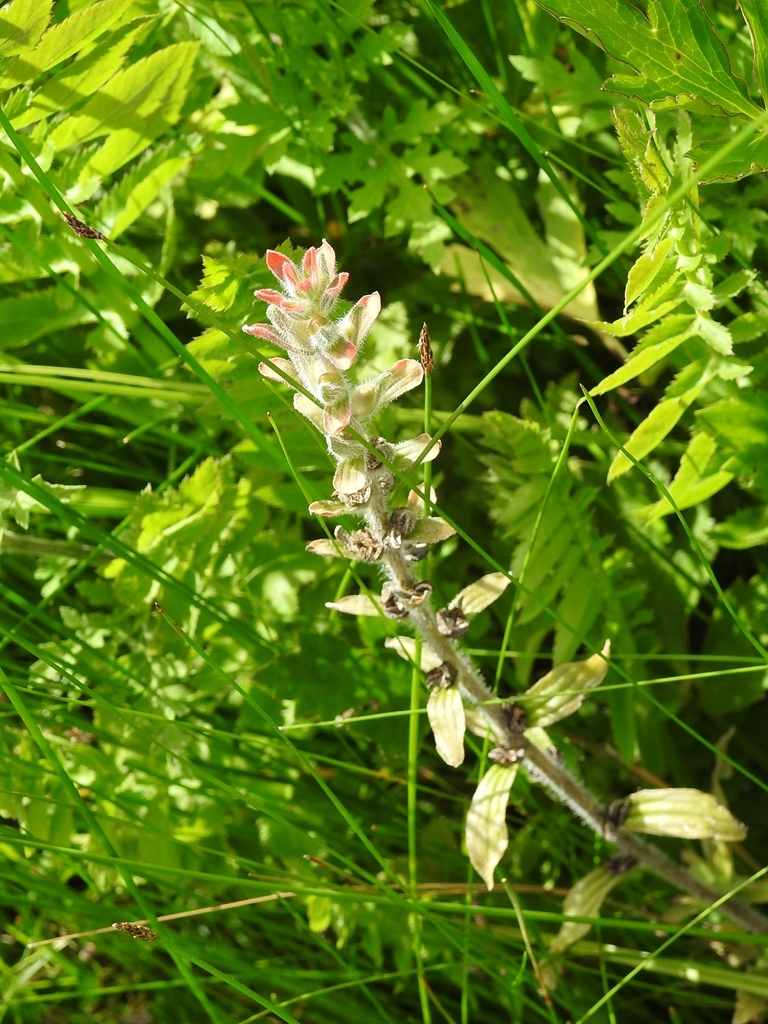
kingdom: Plantae
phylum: Tracheophyta
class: Magnoliopsida
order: Lamiales
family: Orobanchaceae
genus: Castilleja
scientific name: Castilleja arvensis
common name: Indian paintbrush
